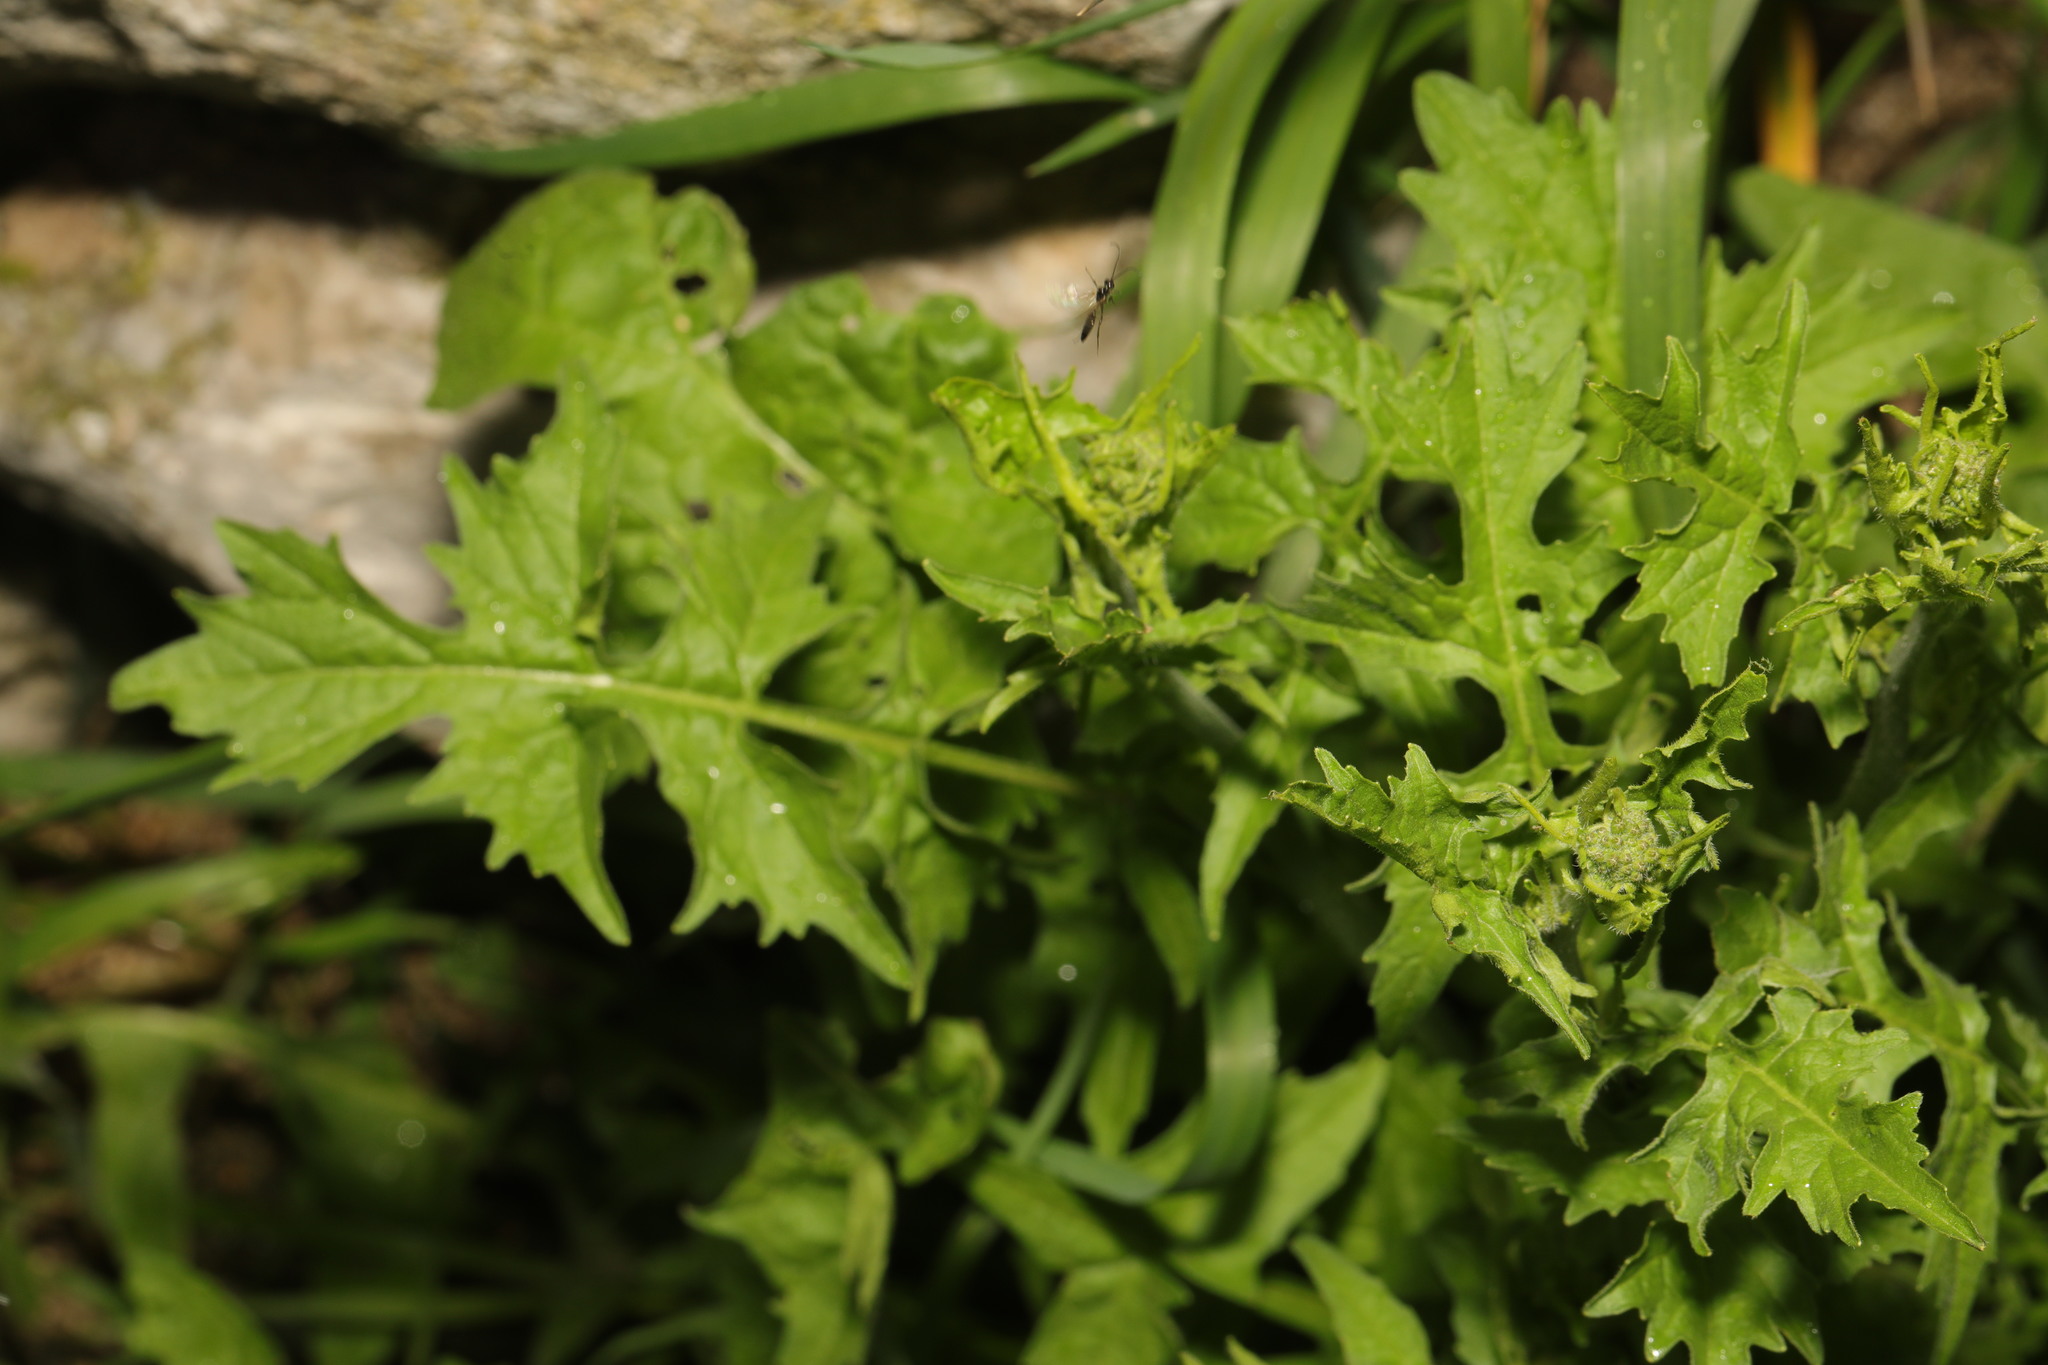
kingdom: Plantae
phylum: Tracheophyta
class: Magnoliopsida
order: Brassicales
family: Brassicaceae
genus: Sisymbrium
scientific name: Sisymbrium officinale
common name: Hedge mustard
